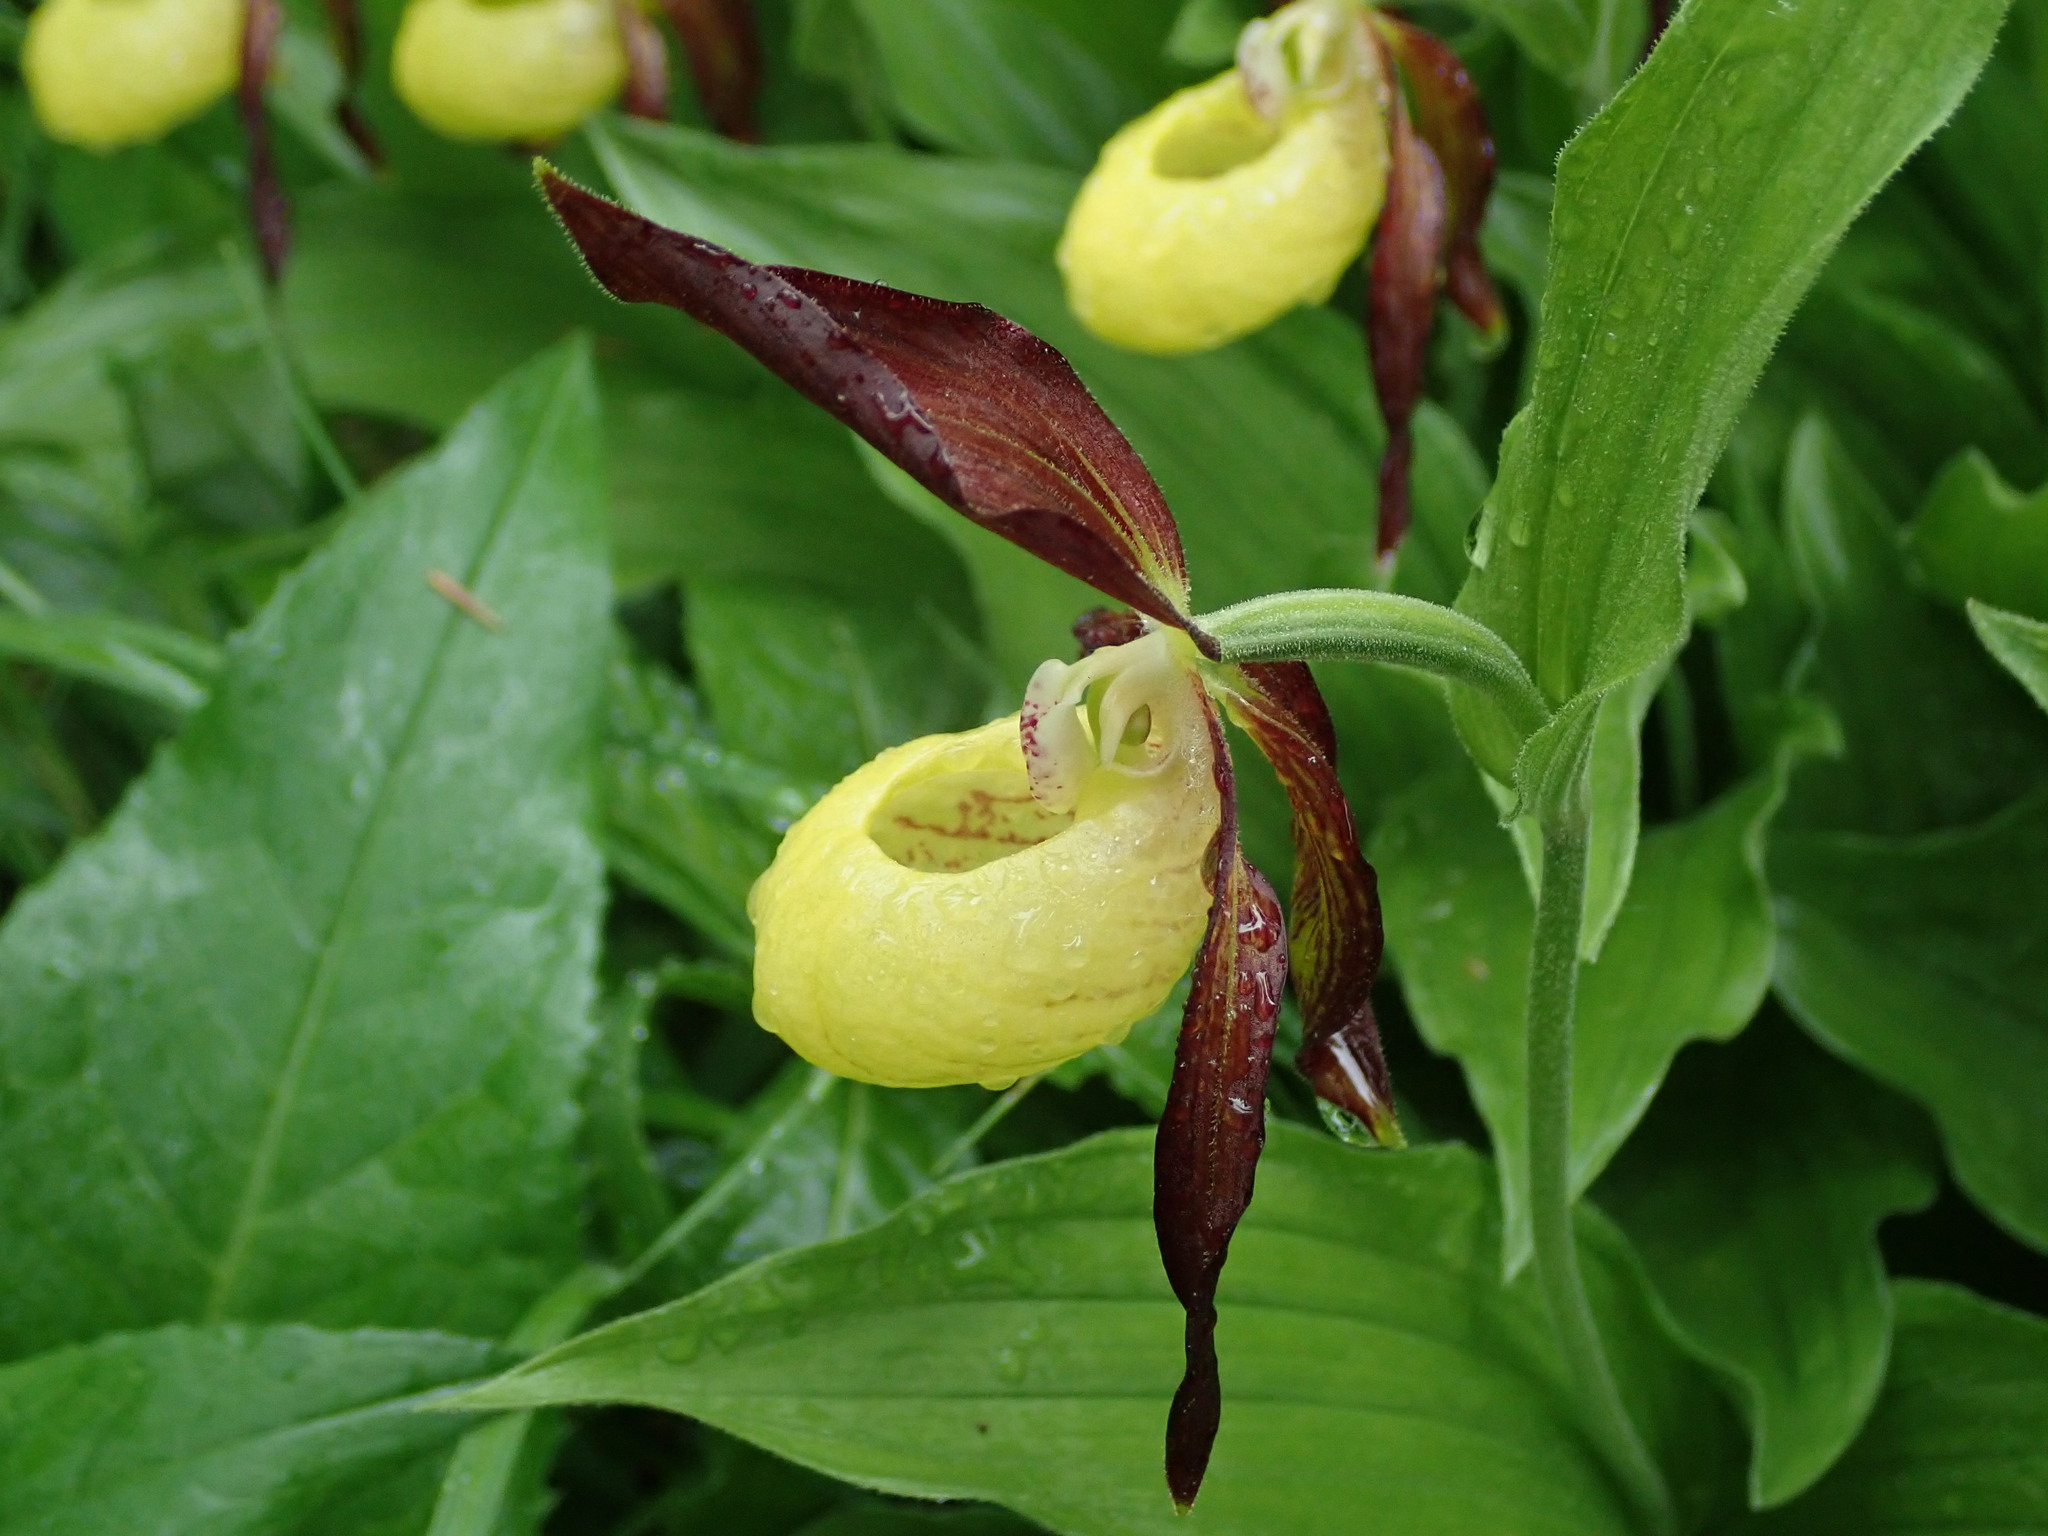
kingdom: Plantae
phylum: Tracheophyta
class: Liliopsida
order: Asparagales
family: Orchidaceae
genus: Cypripedium
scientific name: Cypripedium calceolus
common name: Lady's-slipper
